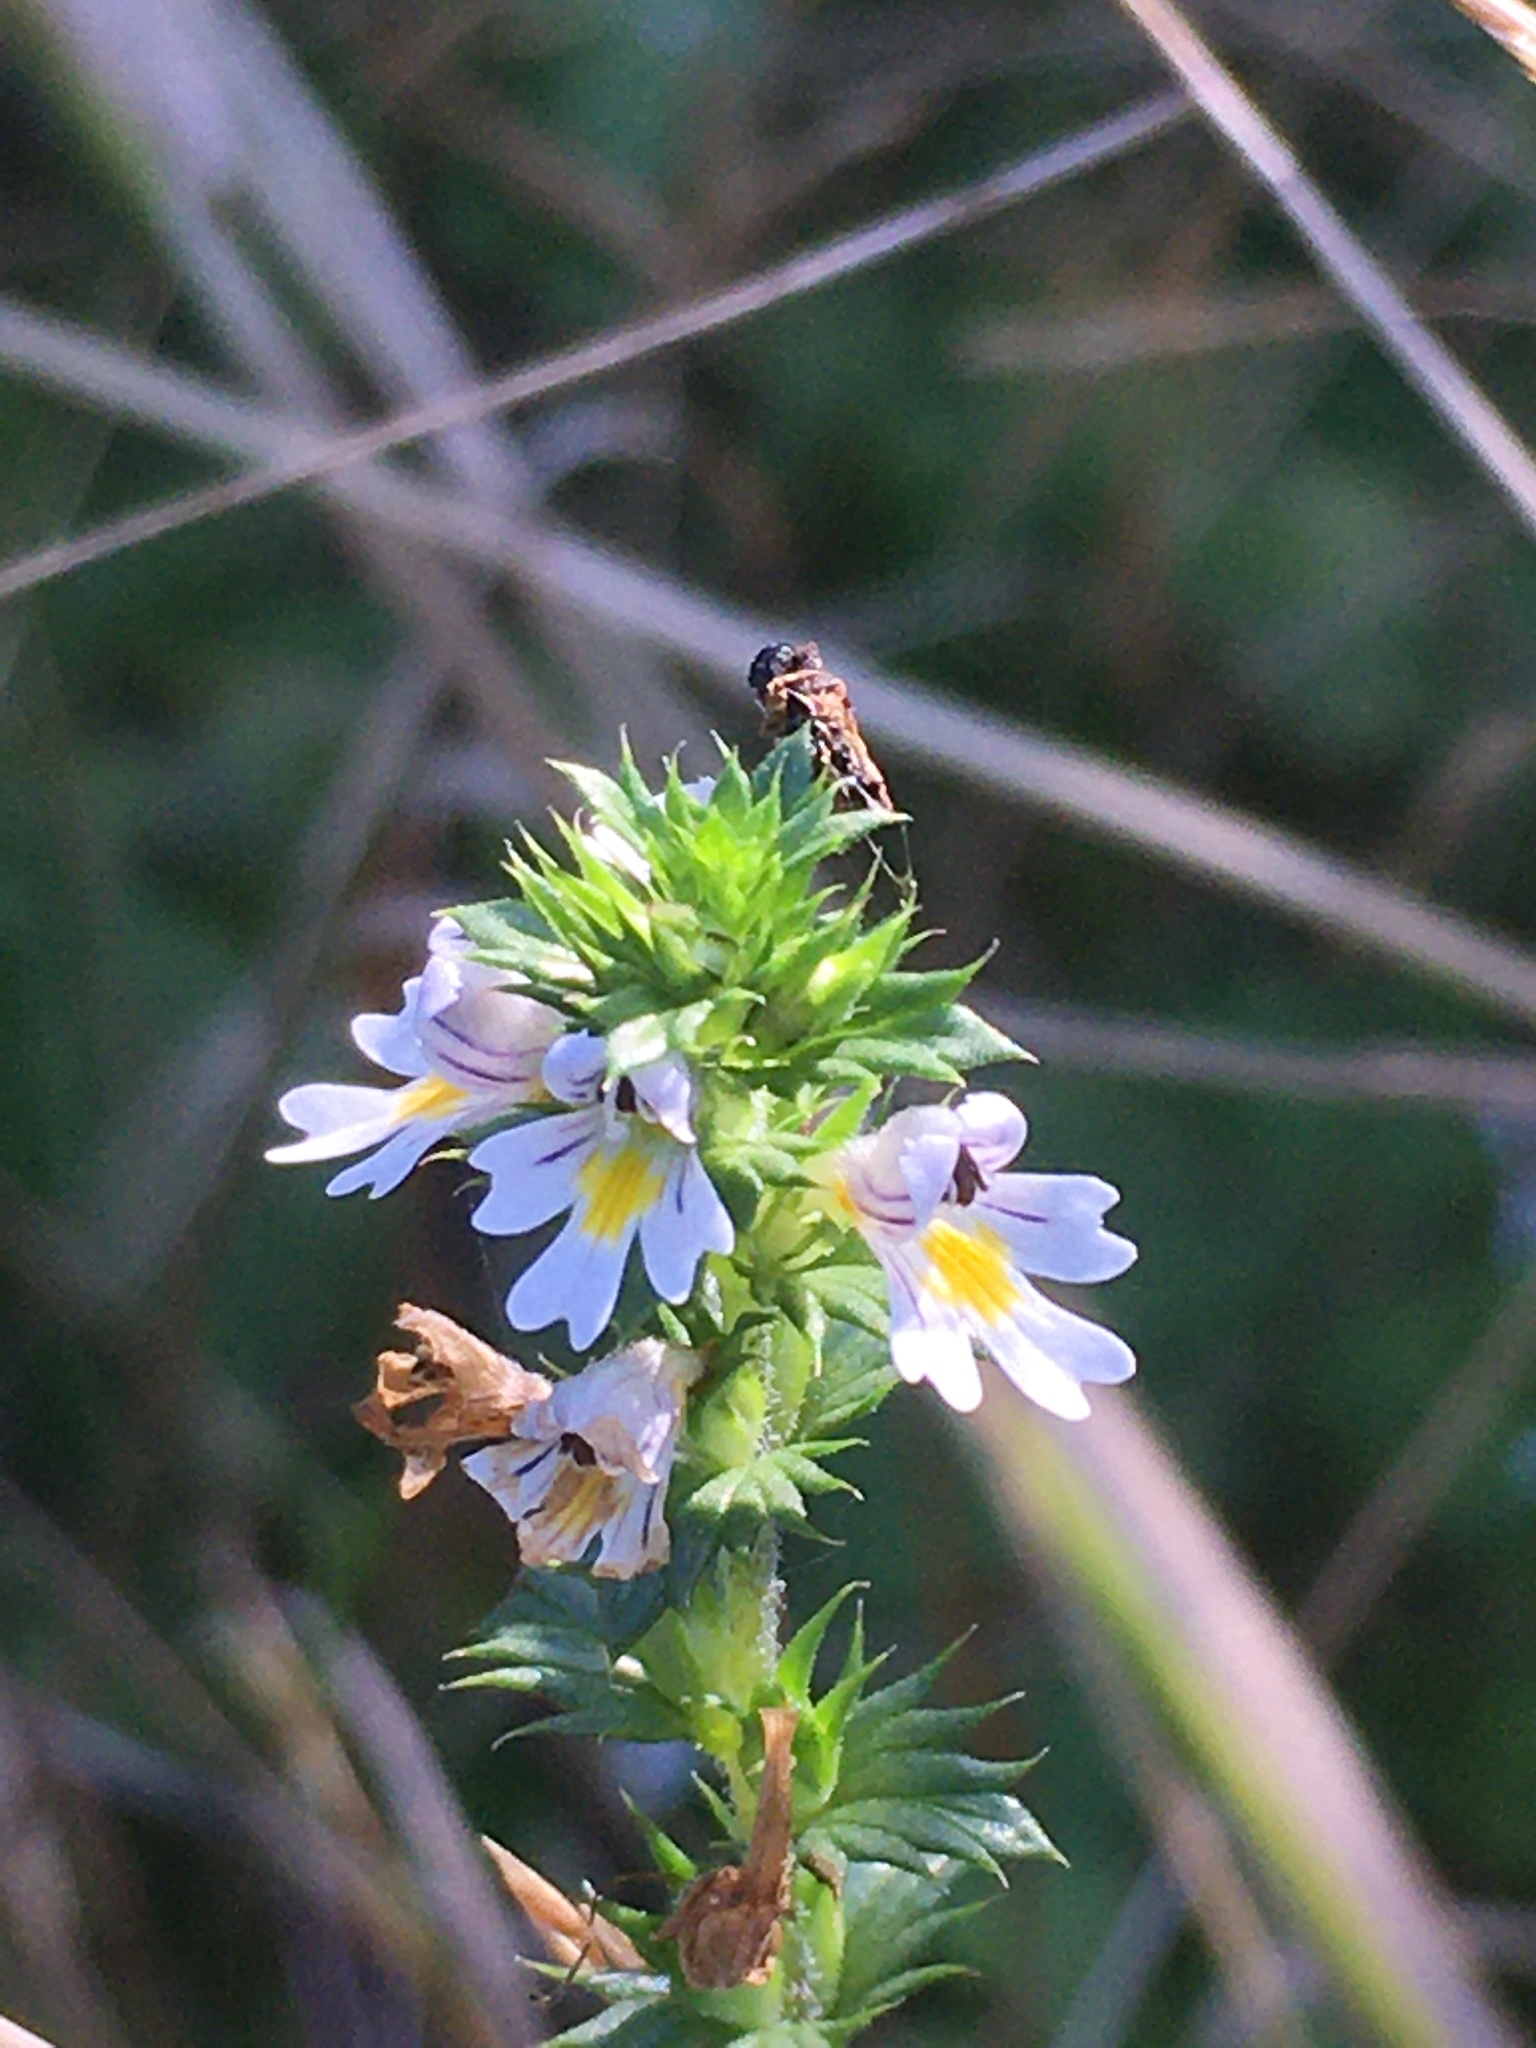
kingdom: Plantae
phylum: Tracheophyta
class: Magnoliopsida
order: Lamiales
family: Orobanchaceae
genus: Euphrasia
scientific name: Euphrasia nemorosa
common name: Common eyebright
